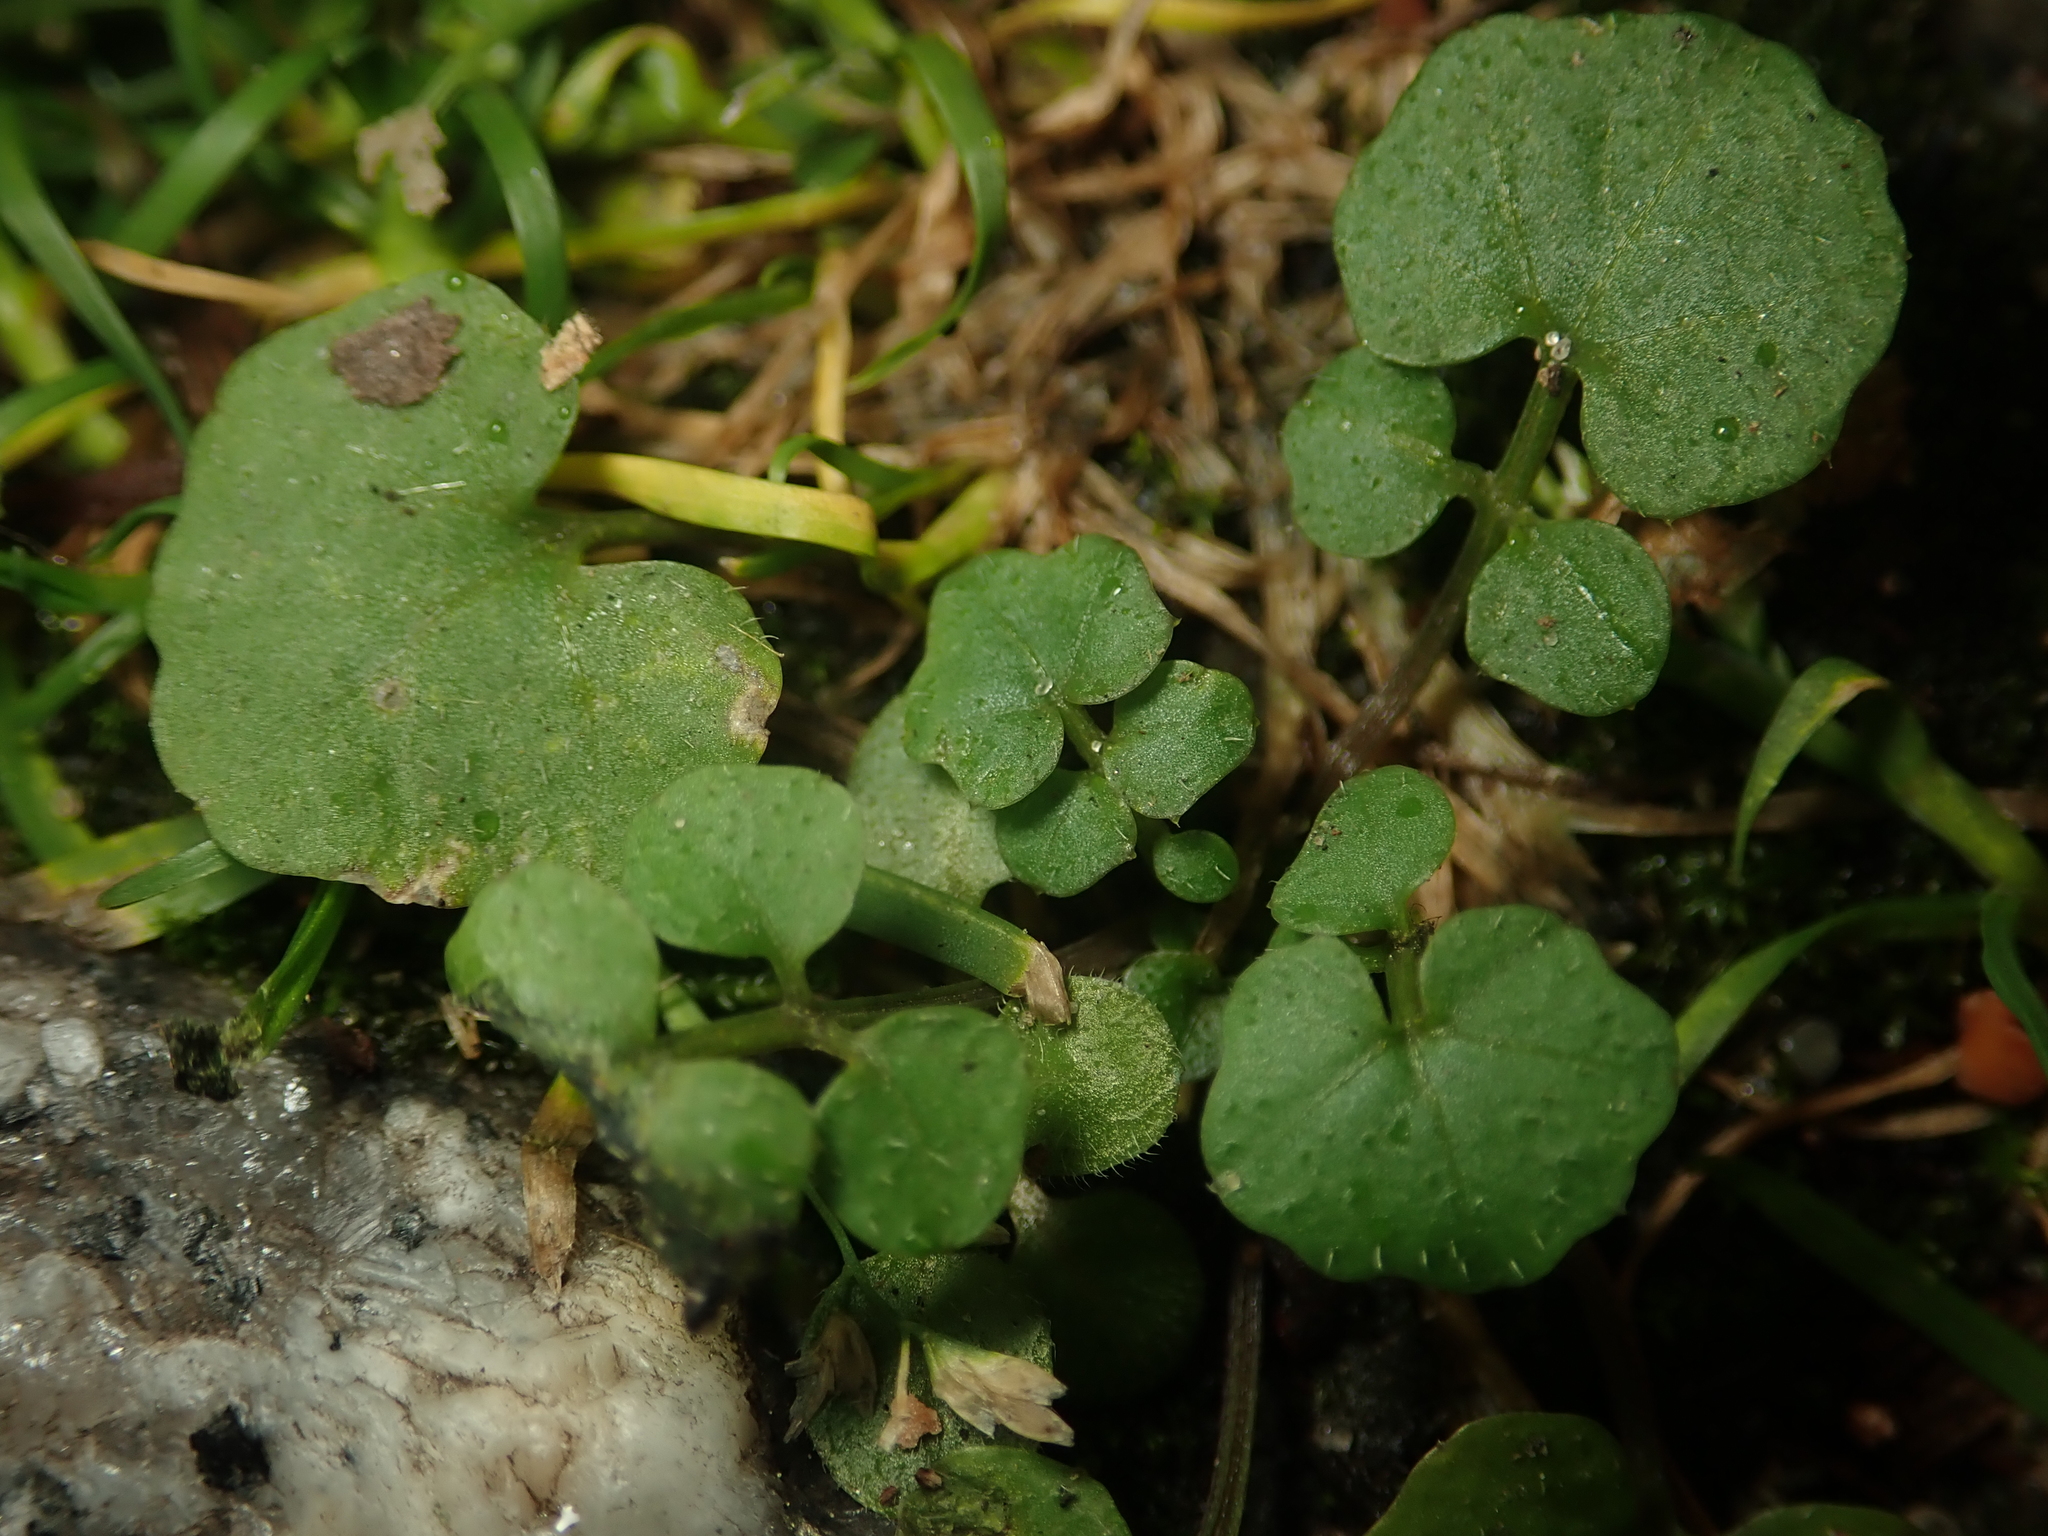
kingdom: Plantae
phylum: Tracheophyta
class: Magnoliopsida
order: Brassicales
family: Brassicaceae
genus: Cardamine
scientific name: Cardamine hirsuta
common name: Hairy bittercress
